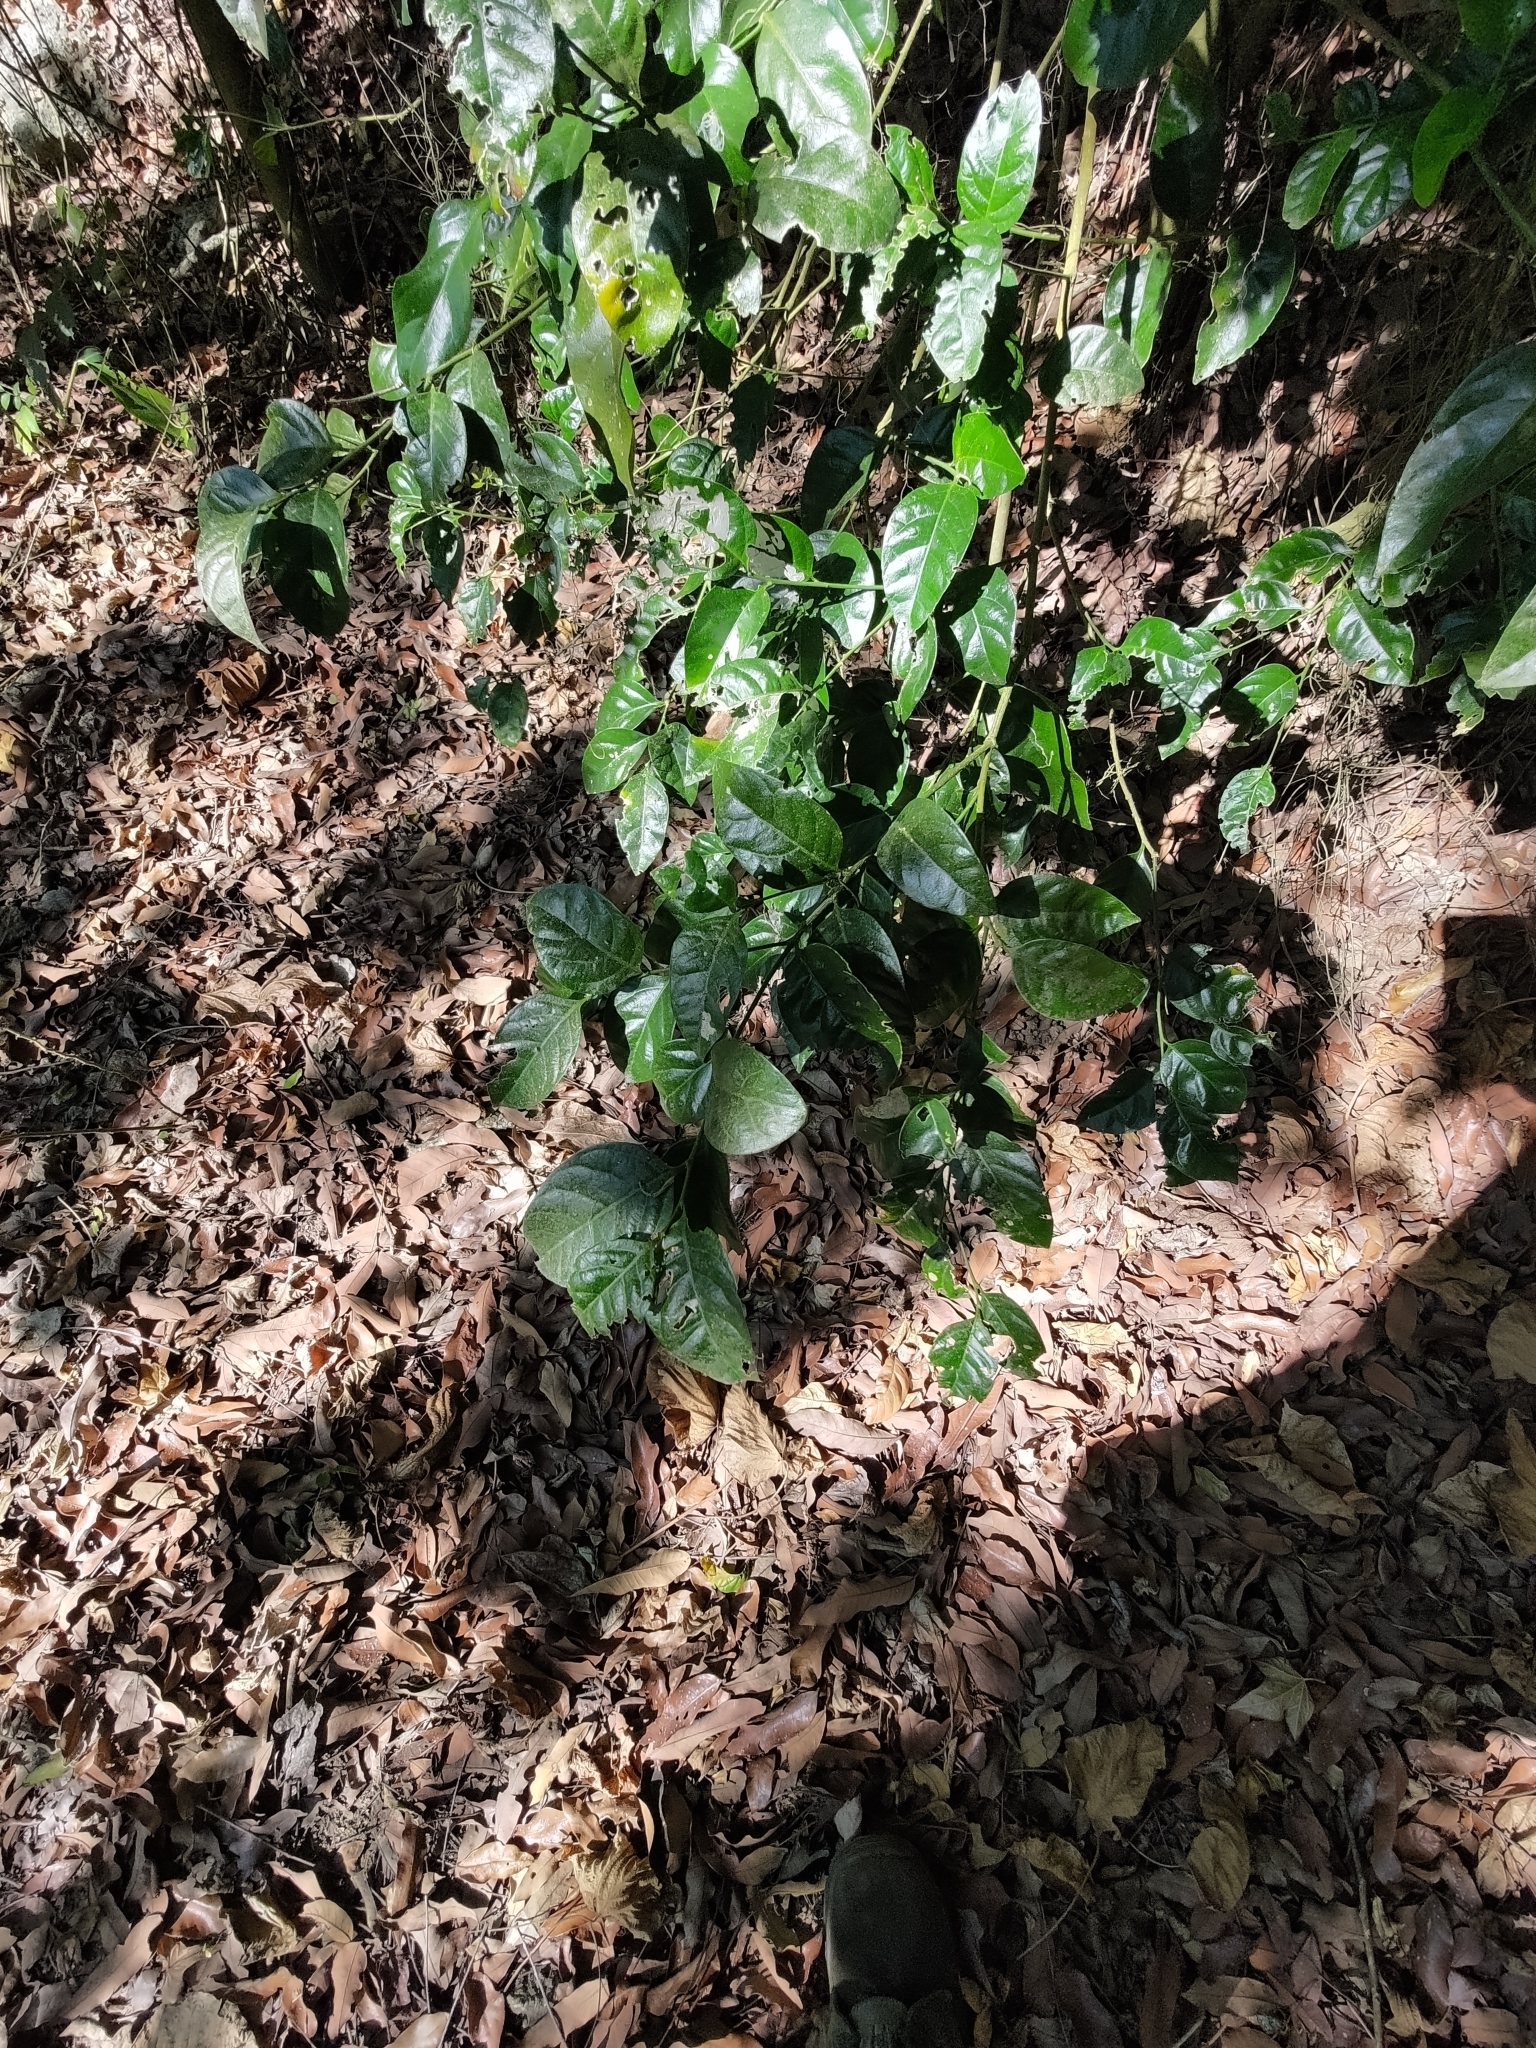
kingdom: Plantae
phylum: Tracheophyta
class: Magnoliopsida
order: Santalales
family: Opiliaceae
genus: Champereia
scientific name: Champereia manillana
